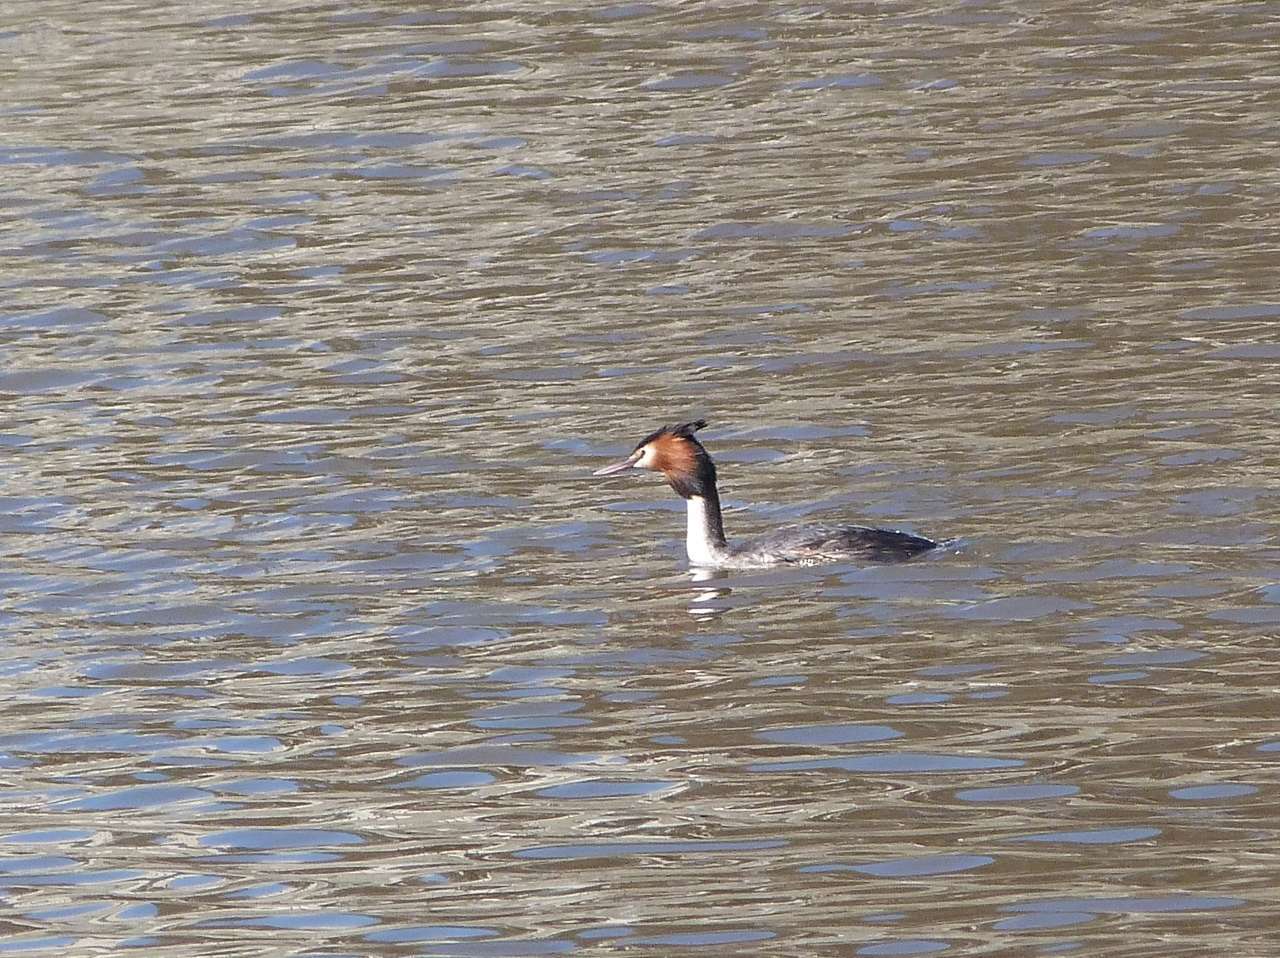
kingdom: Animalia
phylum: Chordata
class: Aves
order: Podicipediformes
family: Podicipedidae
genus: Podiceps
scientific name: Podiceps cristatus
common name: Great crested grebe
